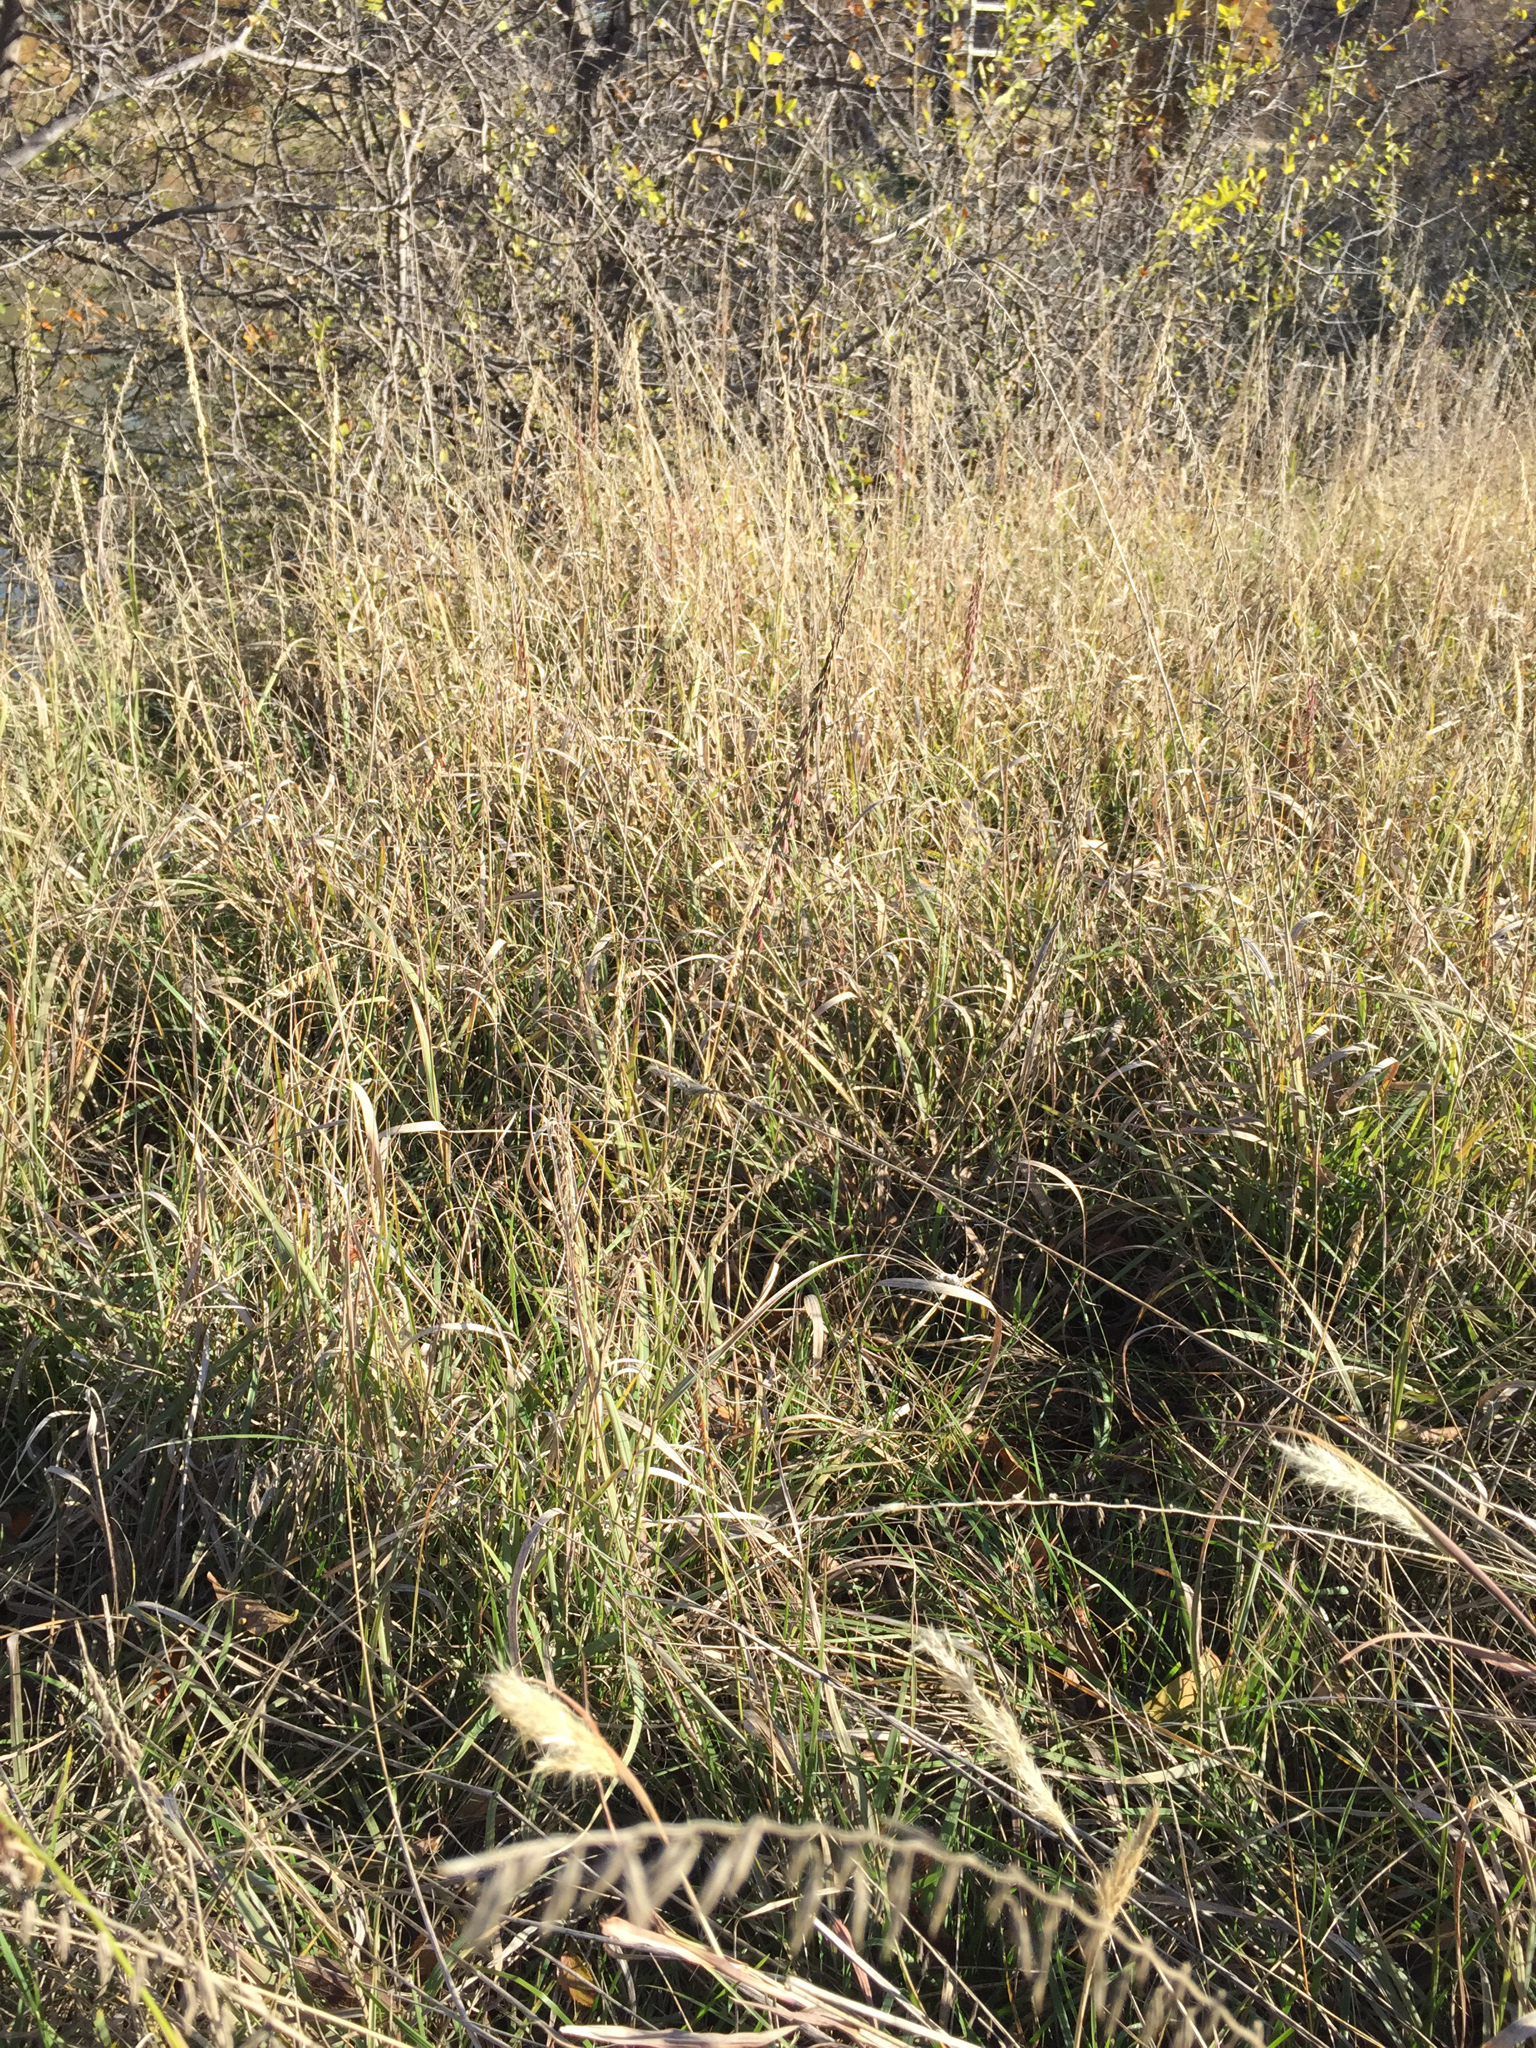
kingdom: Plantae
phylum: Tracheophyta
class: Liliopsida
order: Poales
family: Poaceae
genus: Bouteloua
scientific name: Bouteloua curtipendula
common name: Side-oats grama
